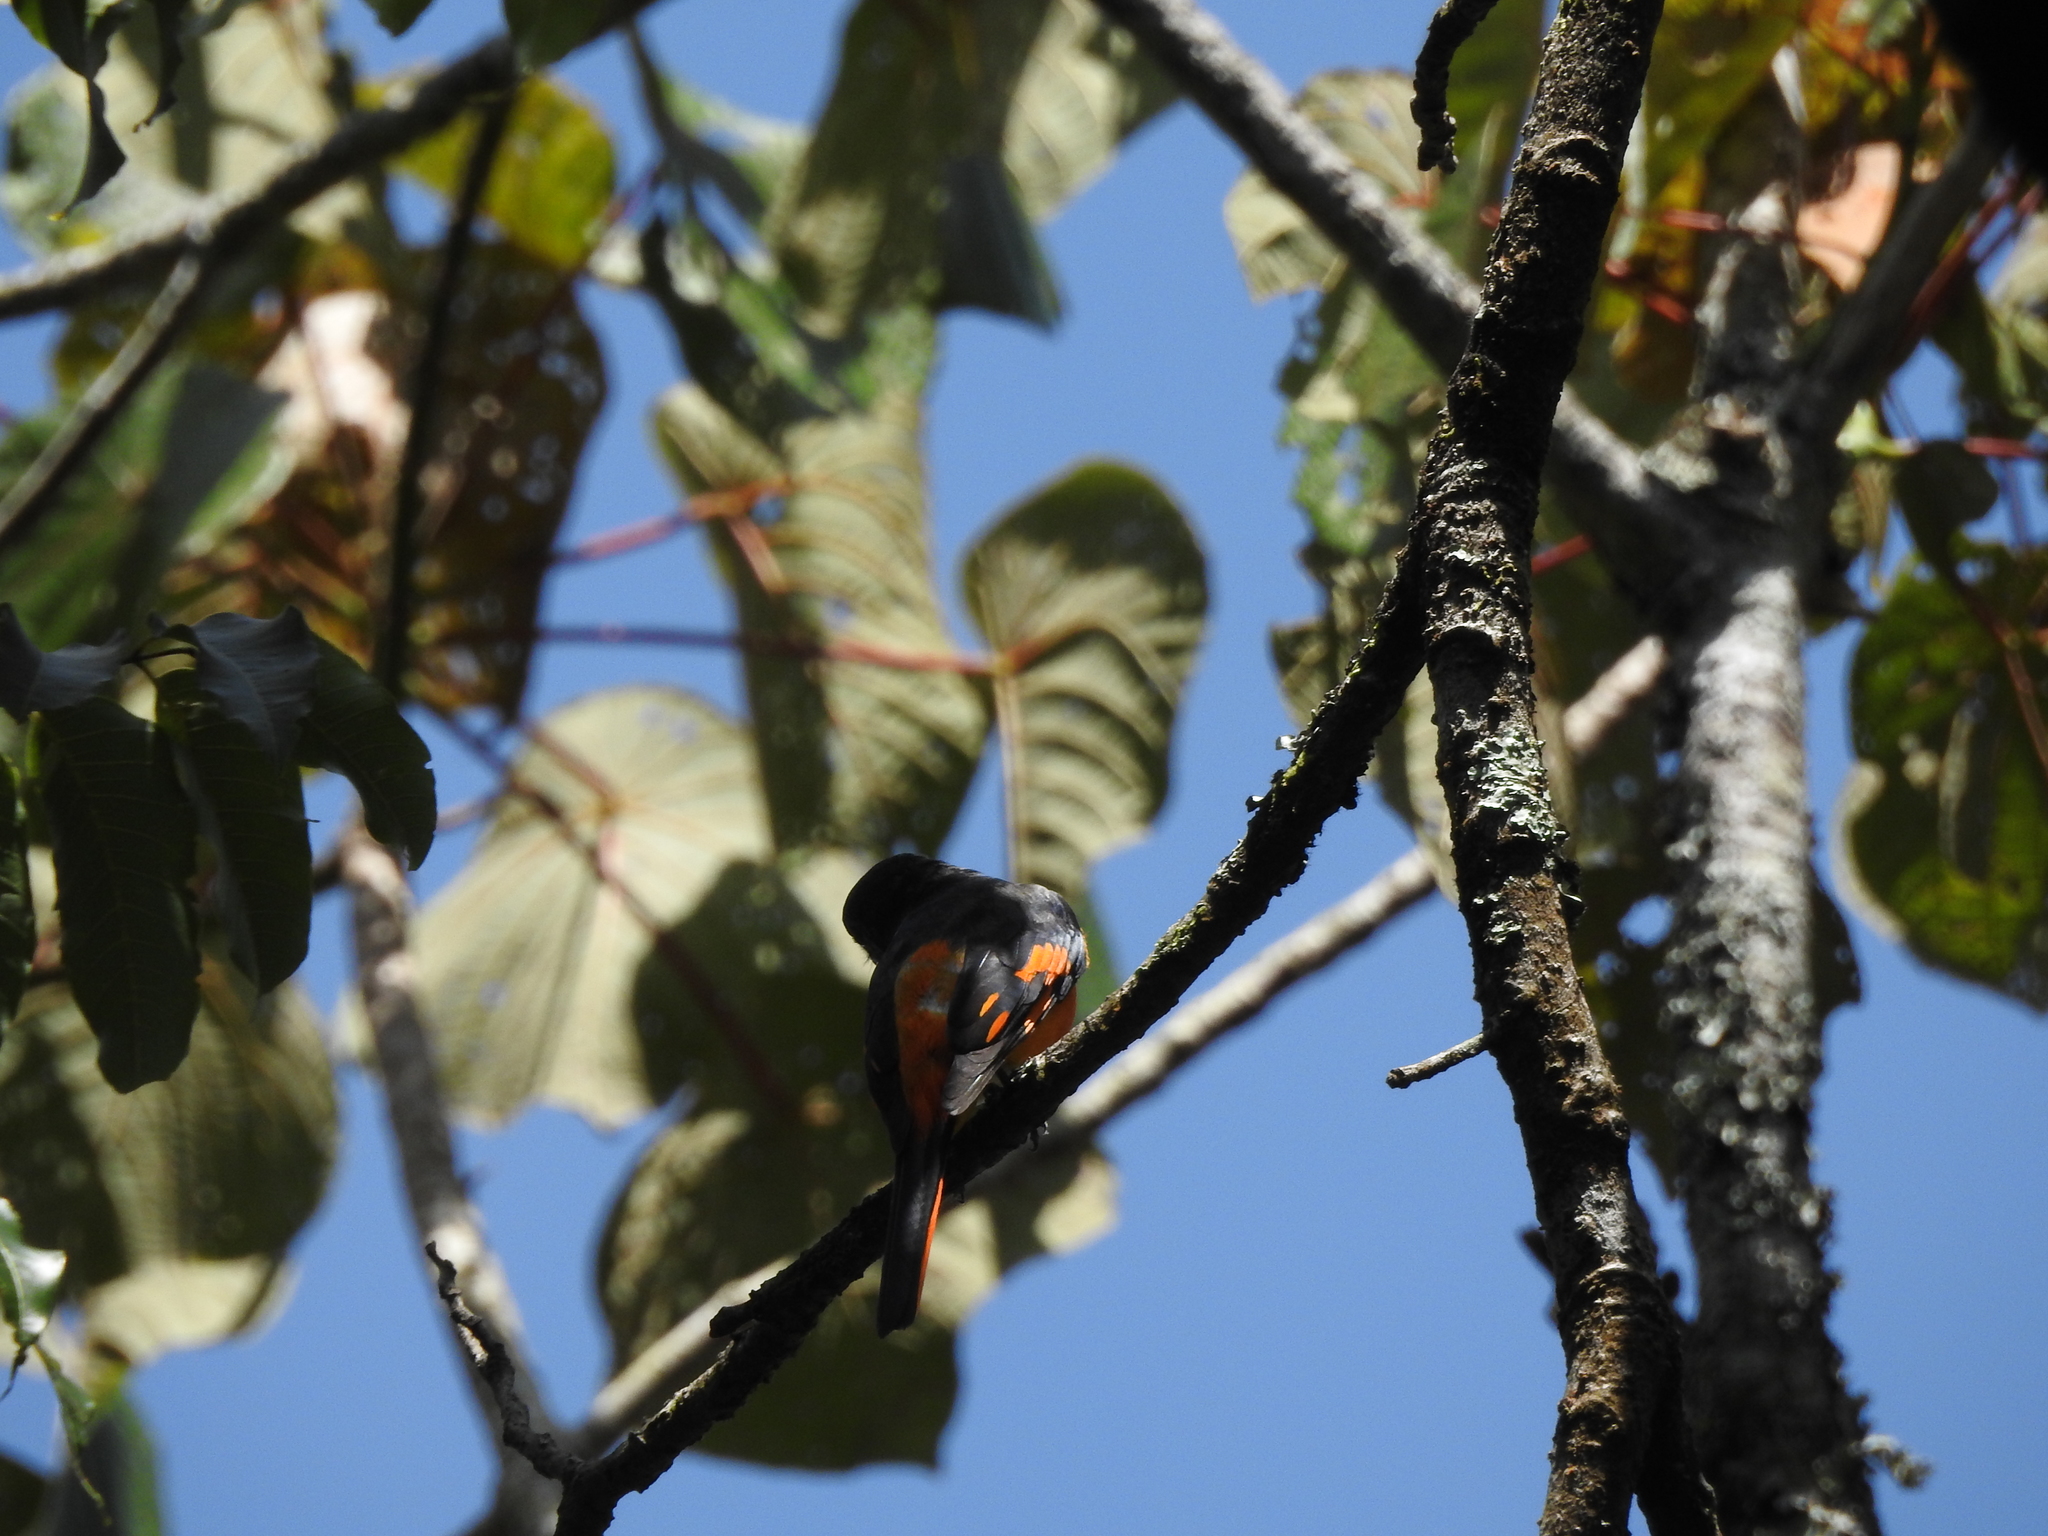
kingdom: Animalia
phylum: Chordata
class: Aves
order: Passeriformes
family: Campephagidae
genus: Pericrocotus
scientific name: Pericrocotus flammeus
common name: Orange minivet
